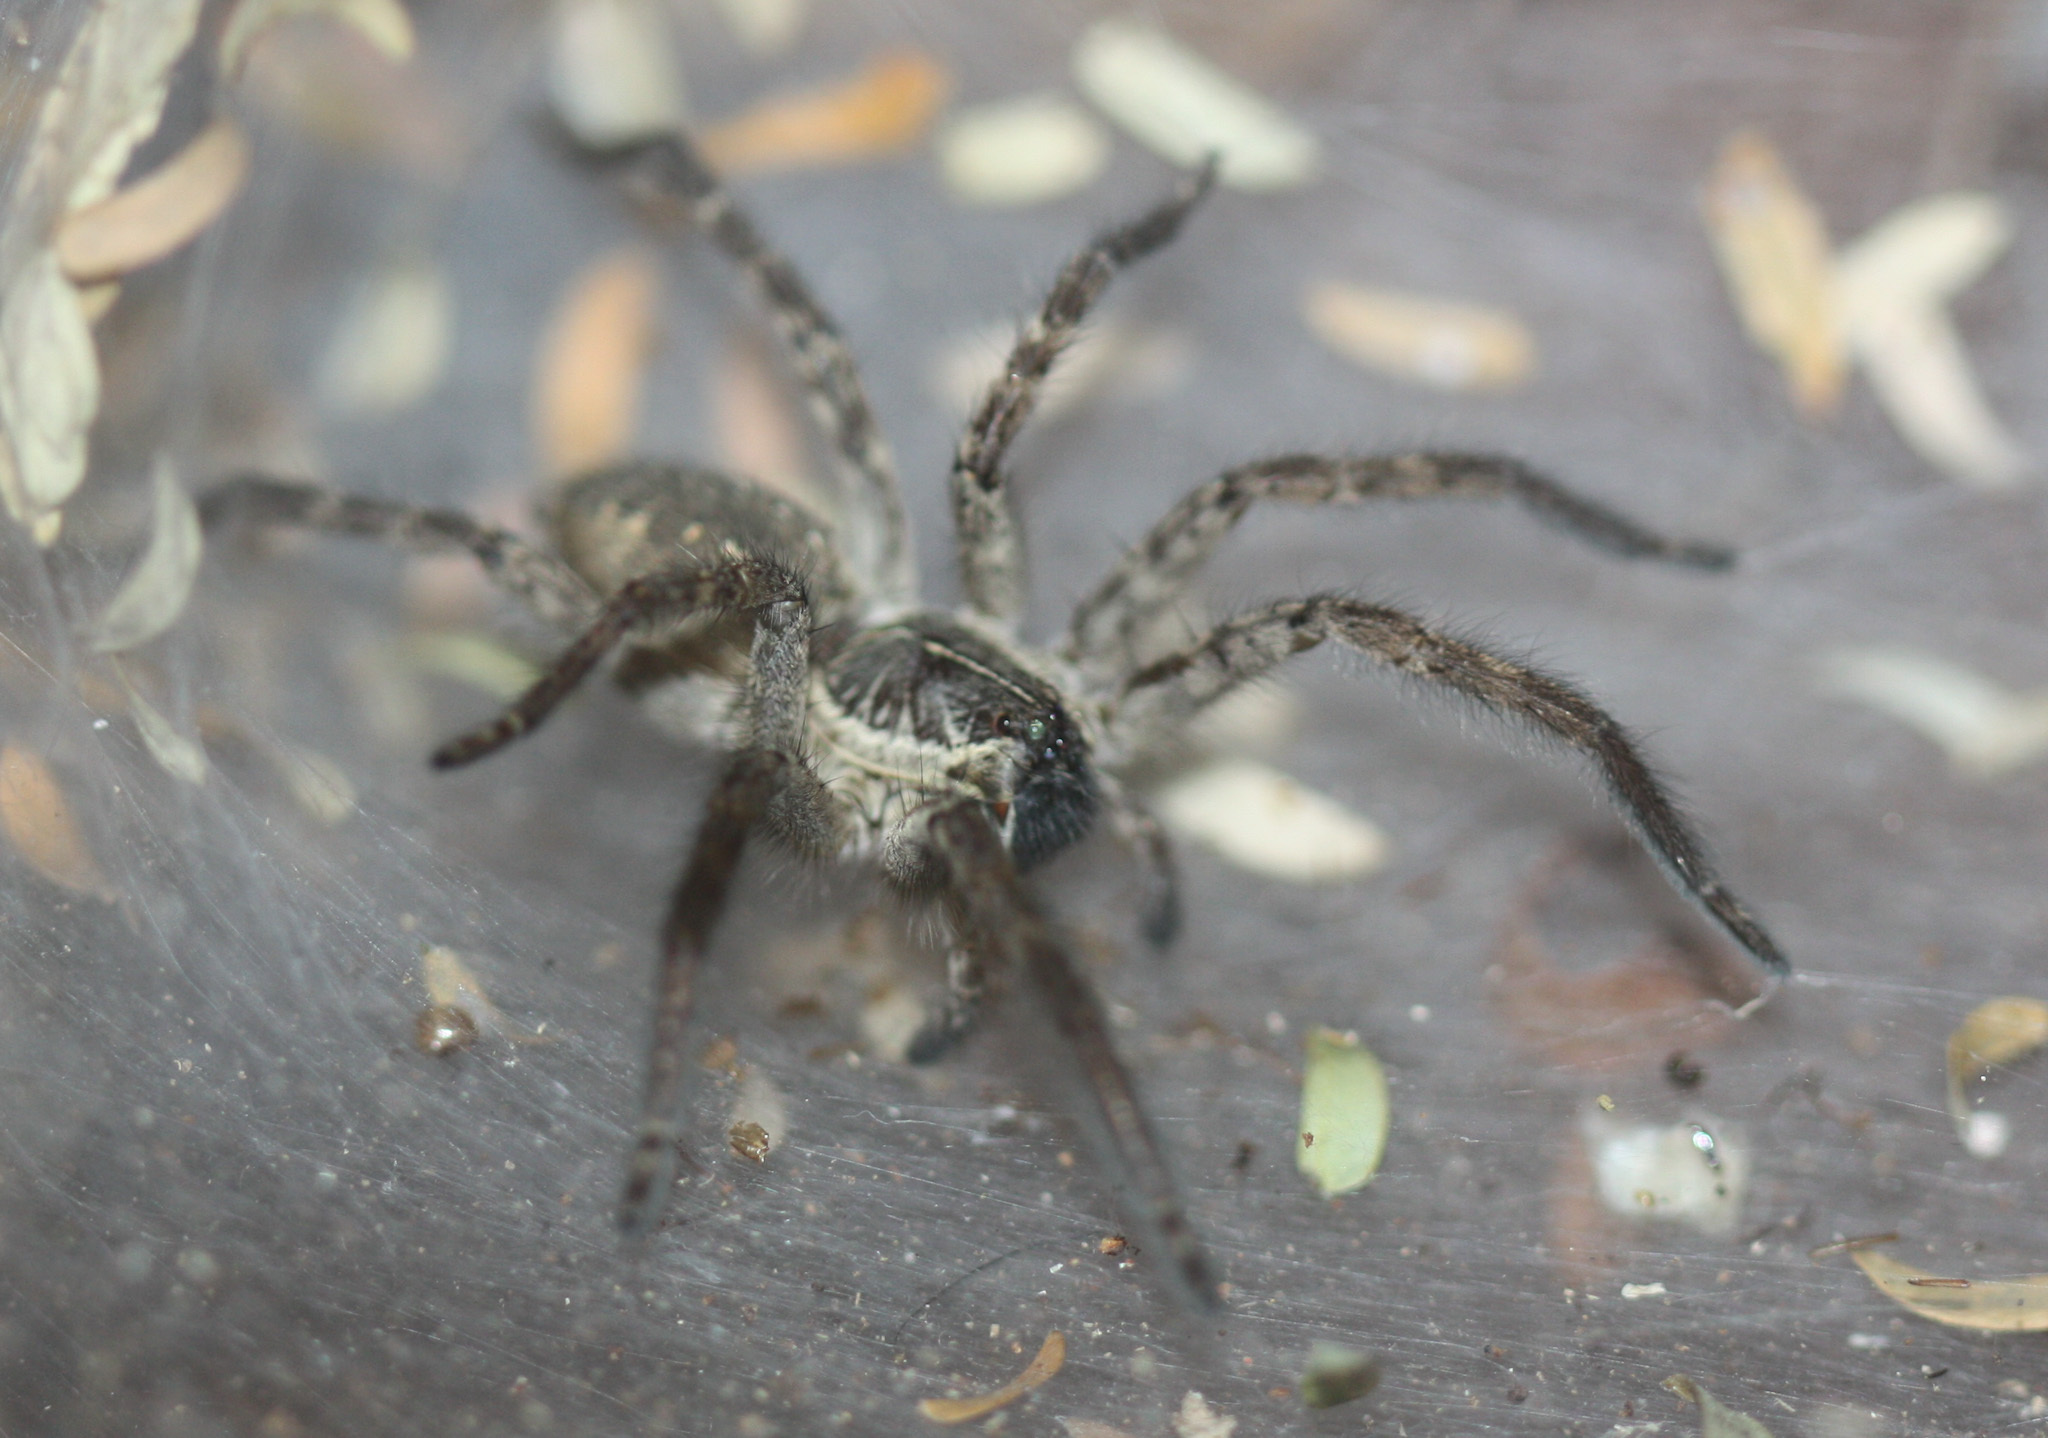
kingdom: Animalia
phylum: Arthropoda
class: Arachnida
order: Araneae
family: Lycosidae
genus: Sosippus
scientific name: Sosippus agalenoides
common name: Wolf spiders
